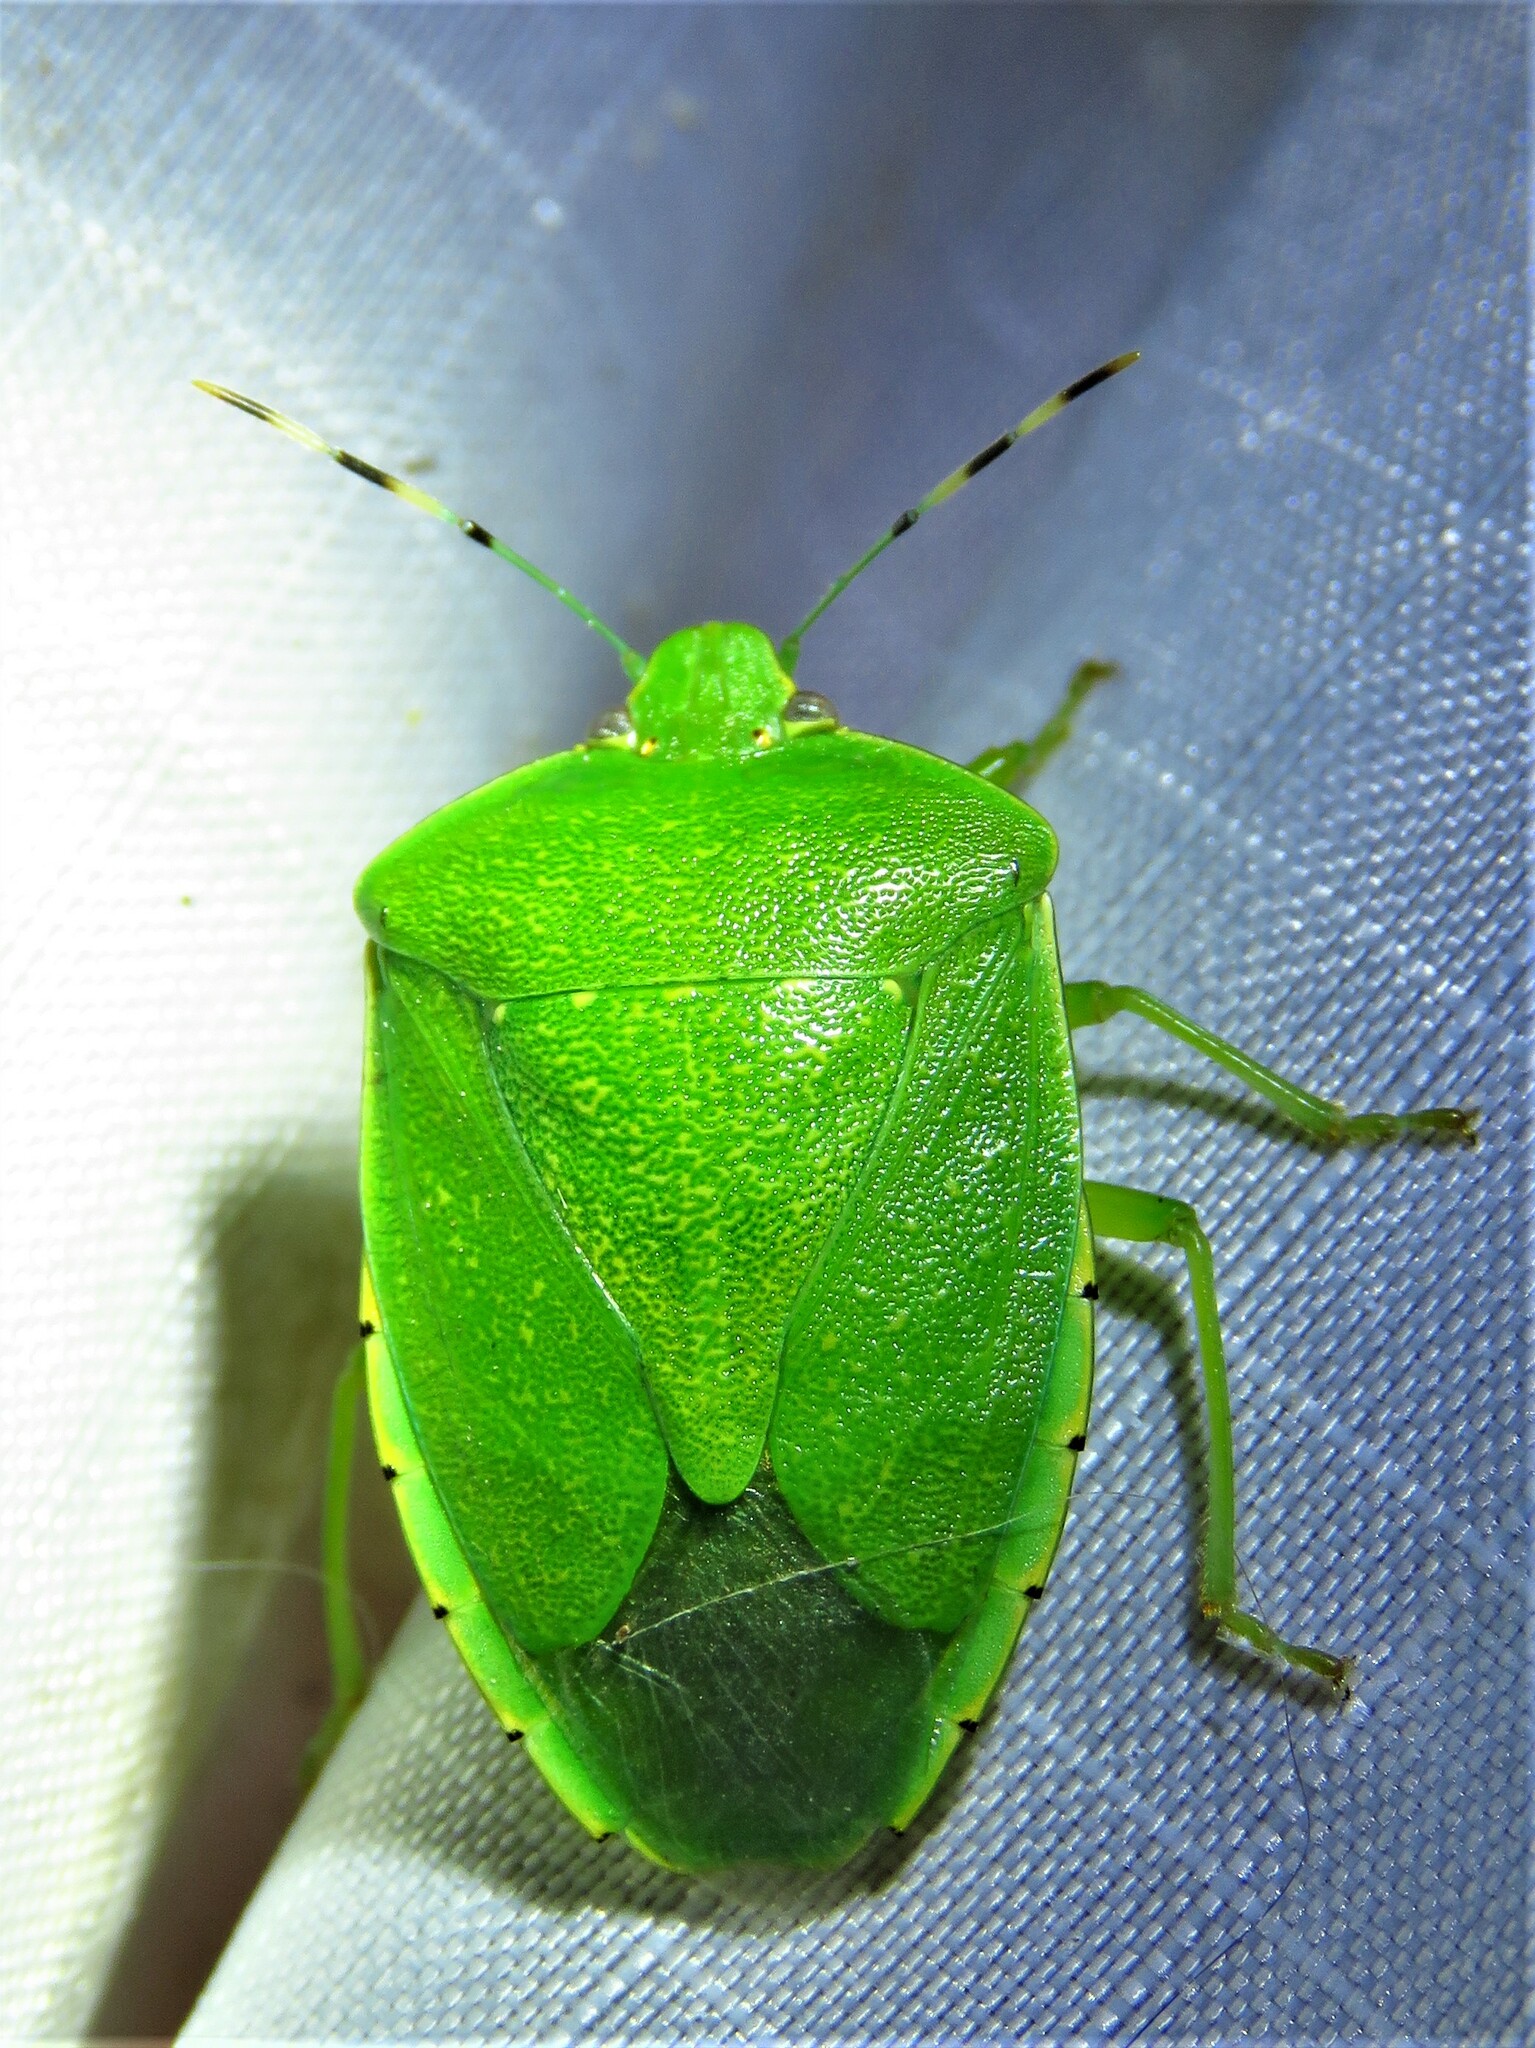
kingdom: Animalia
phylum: Arthropoda
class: Insecta
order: Hemiptera
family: Pentatomidae
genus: Chinavia
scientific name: Chinavia hilaris
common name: Green stink bug
